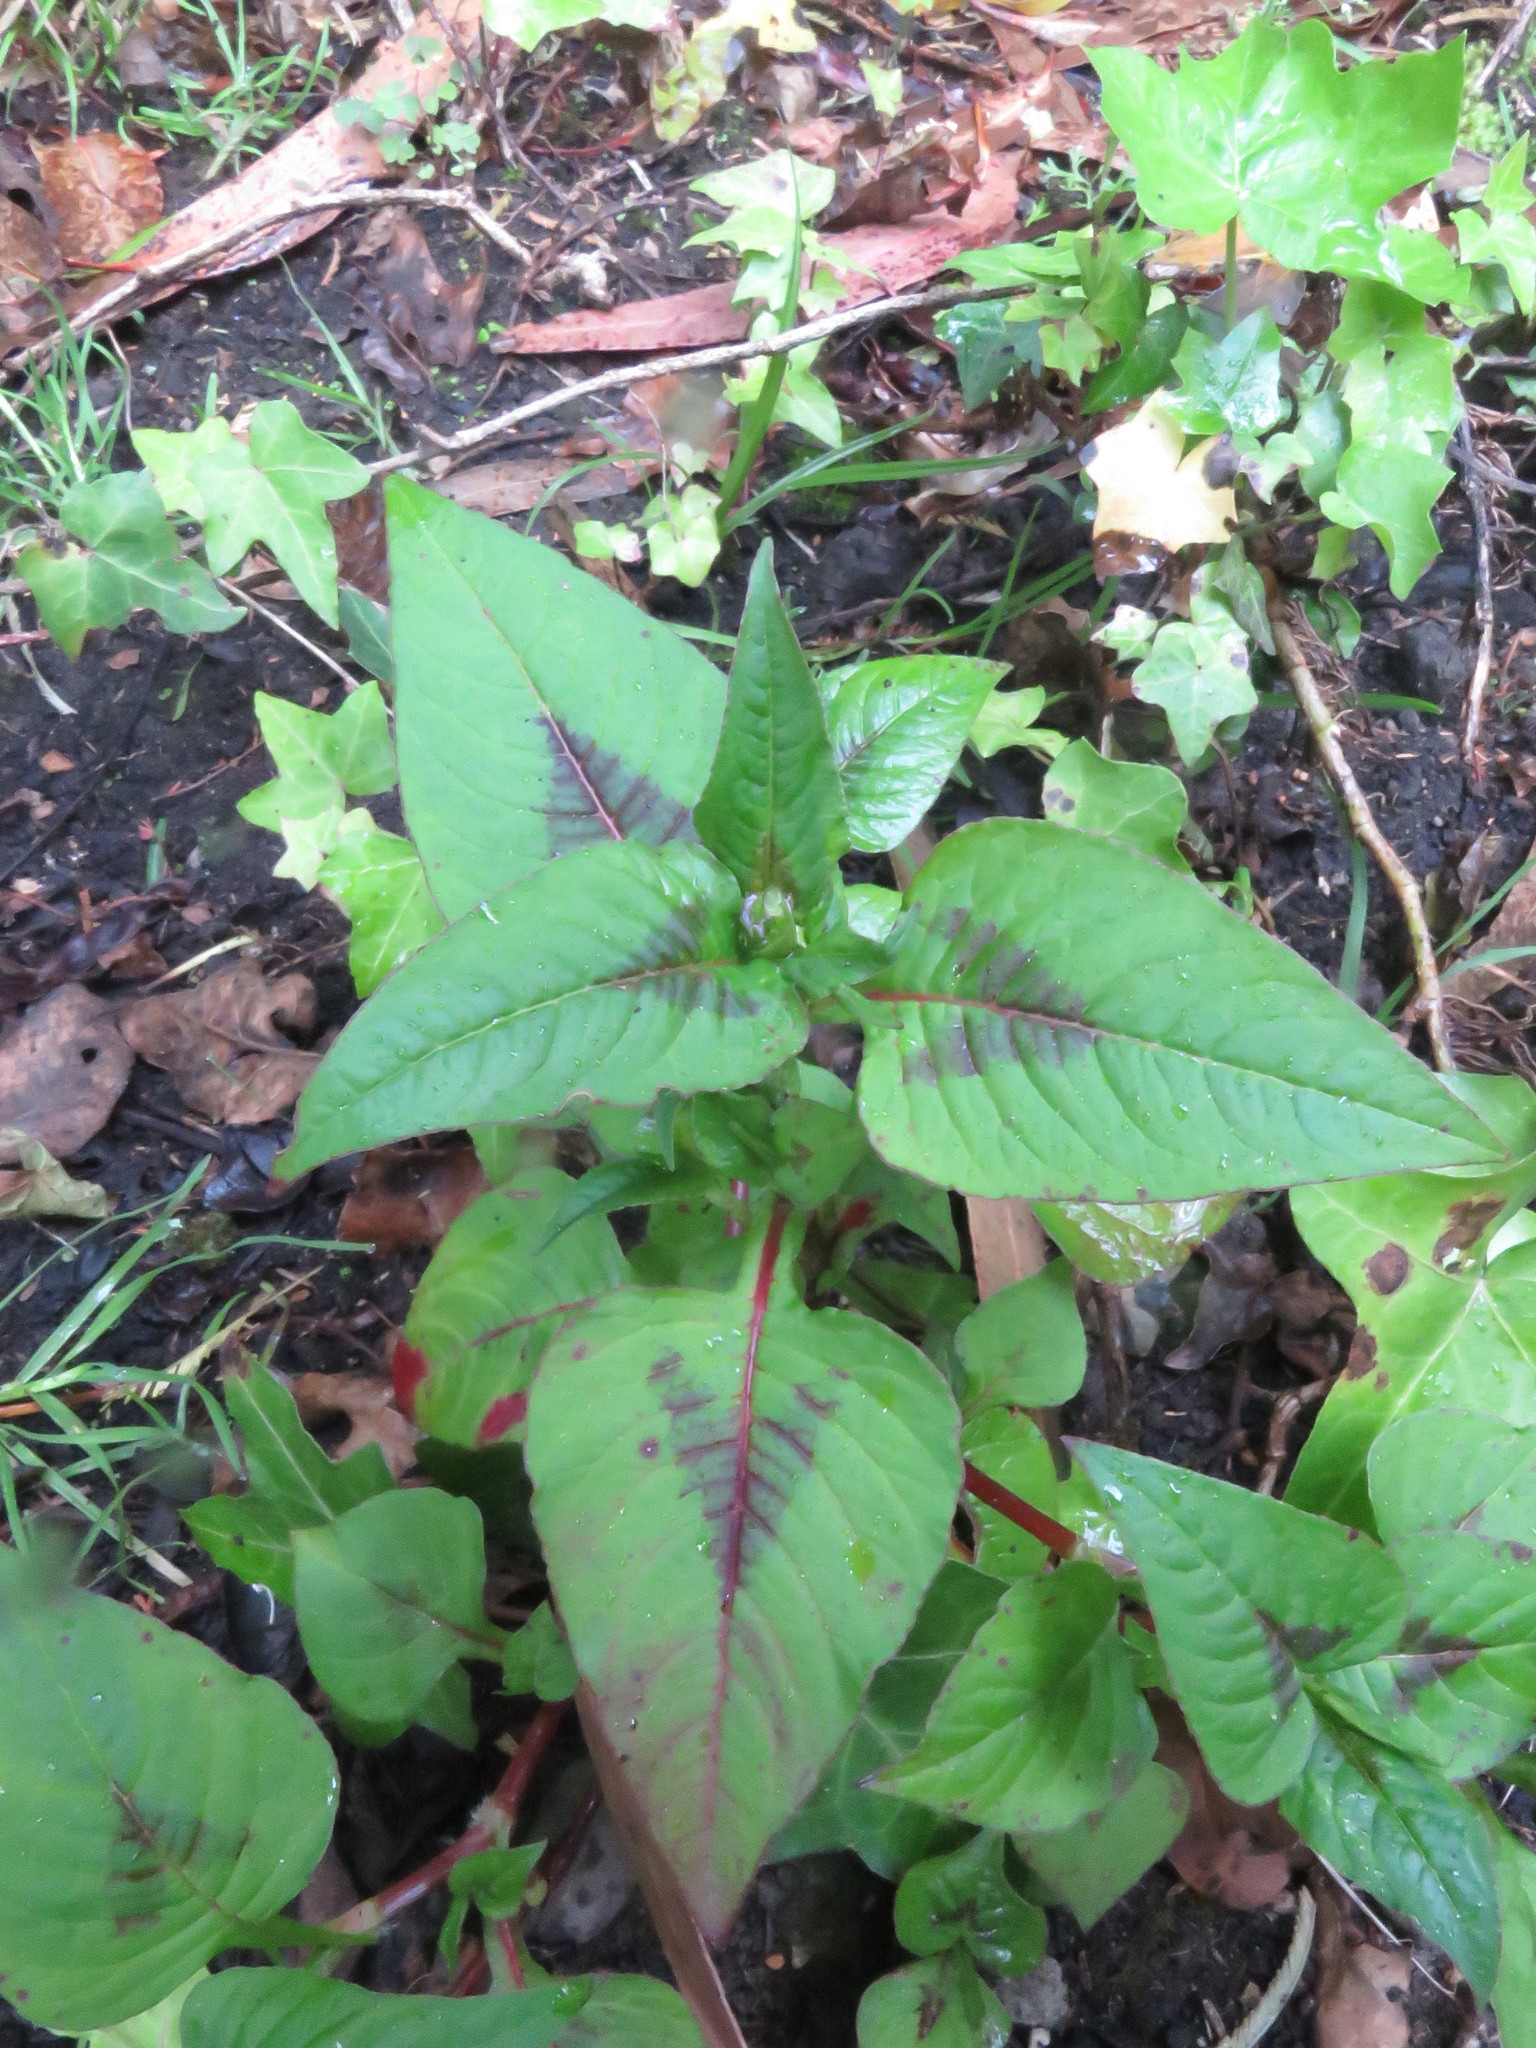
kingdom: Plantae
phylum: Tracheophyta
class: Magnoliopsida
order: Caryophyllales
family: Polygonaceae
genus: Persicaria
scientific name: Persicaria nepalensis
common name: Nepal persicaria
